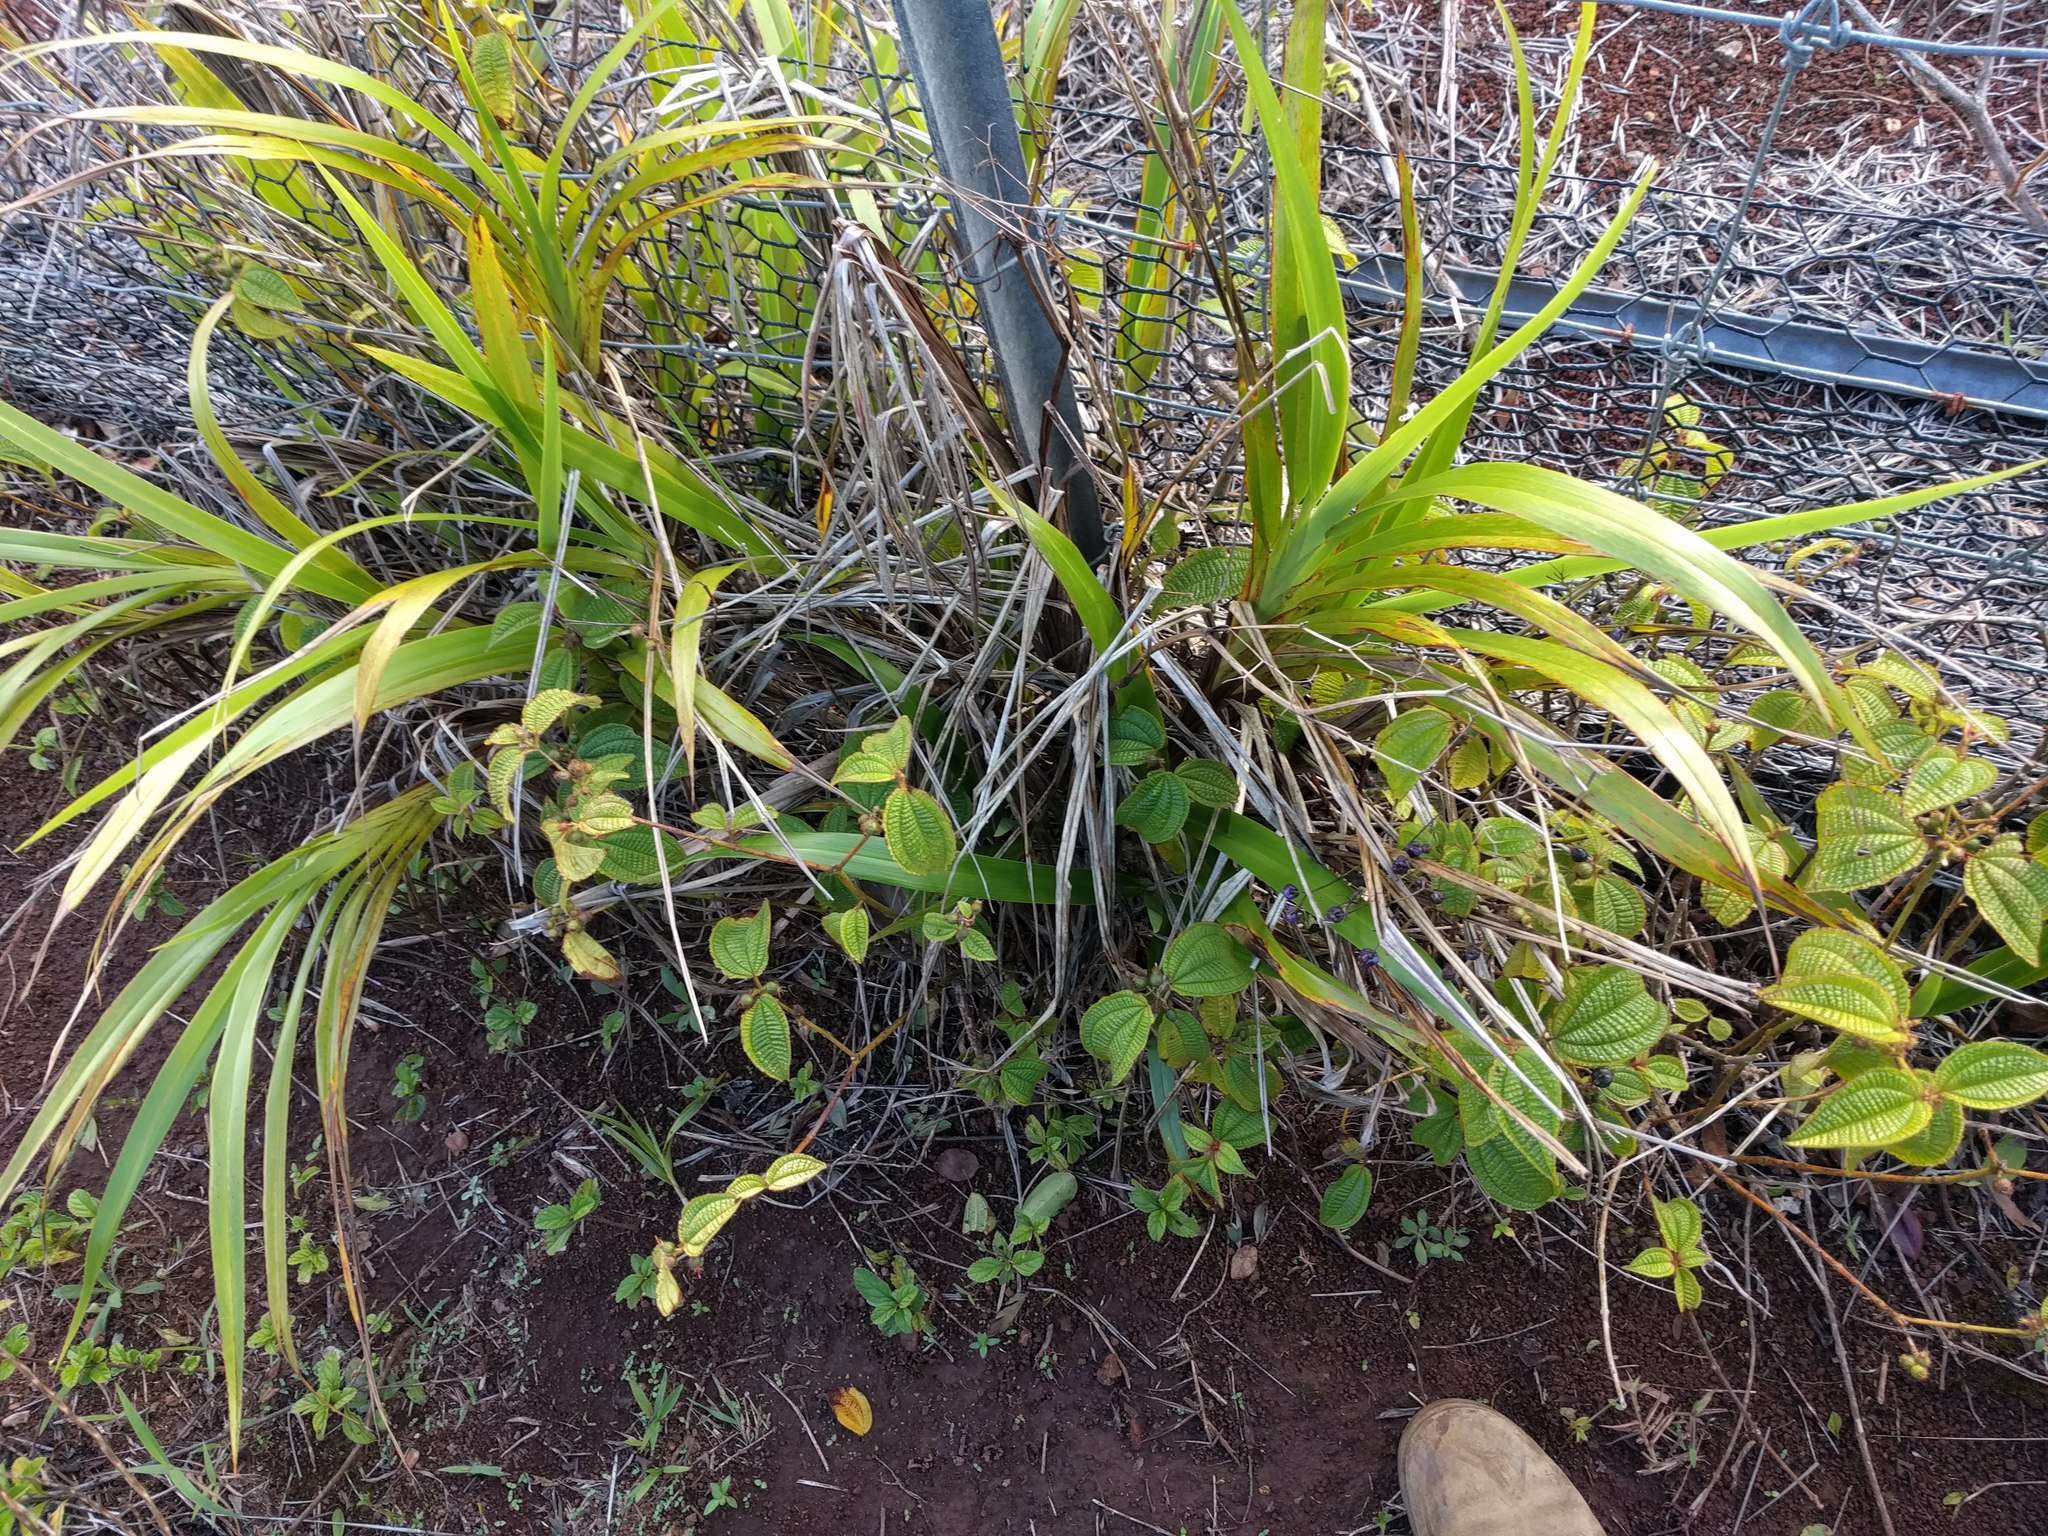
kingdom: Plantae
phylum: Tracheophyta
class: Liliopsida
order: Asparagales
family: Asphodelaceae
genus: Dianella
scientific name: Dianella sandwicensis
